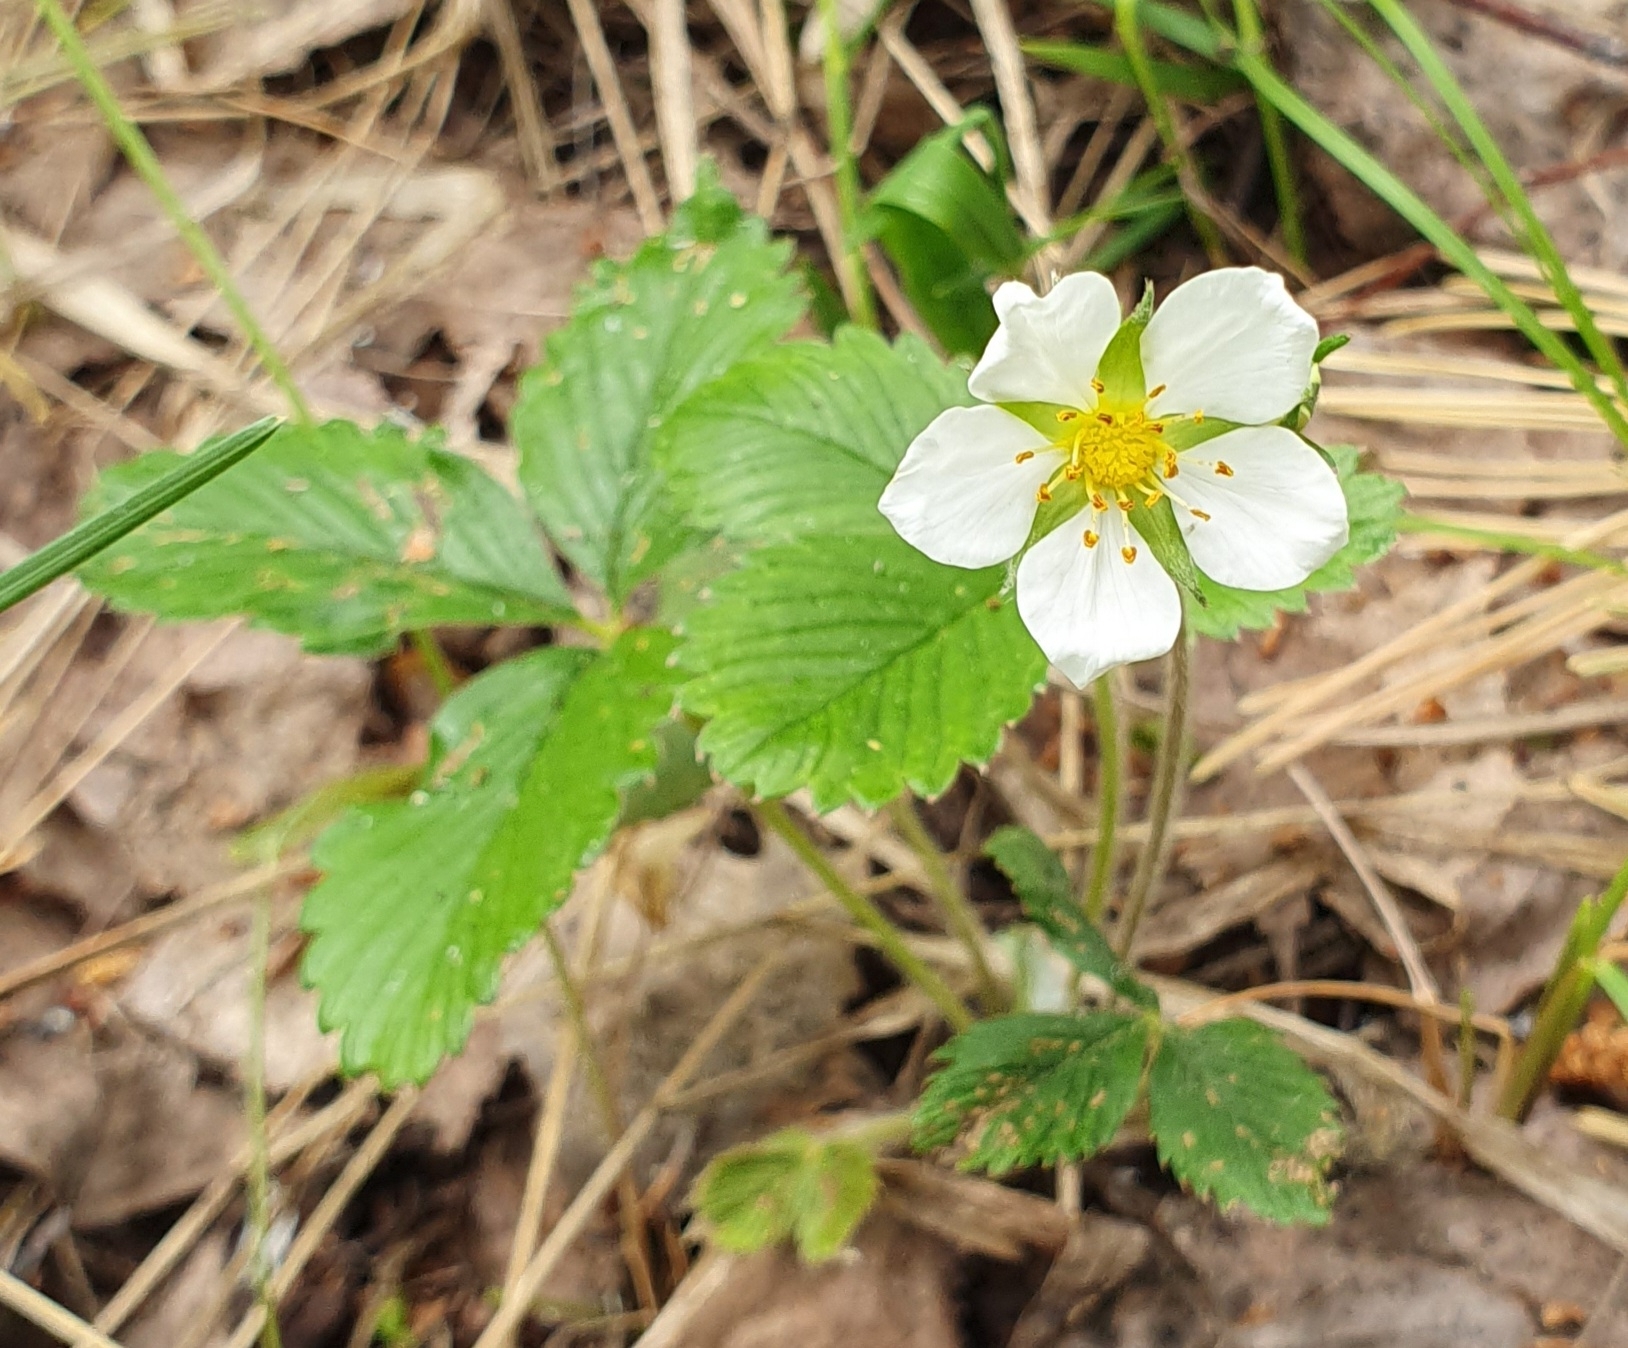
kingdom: Plantae
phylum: Tracheophyta
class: Magnoliopsida
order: Rosales
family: Rosaceae
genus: Fragaria
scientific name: Fragaria viridis
